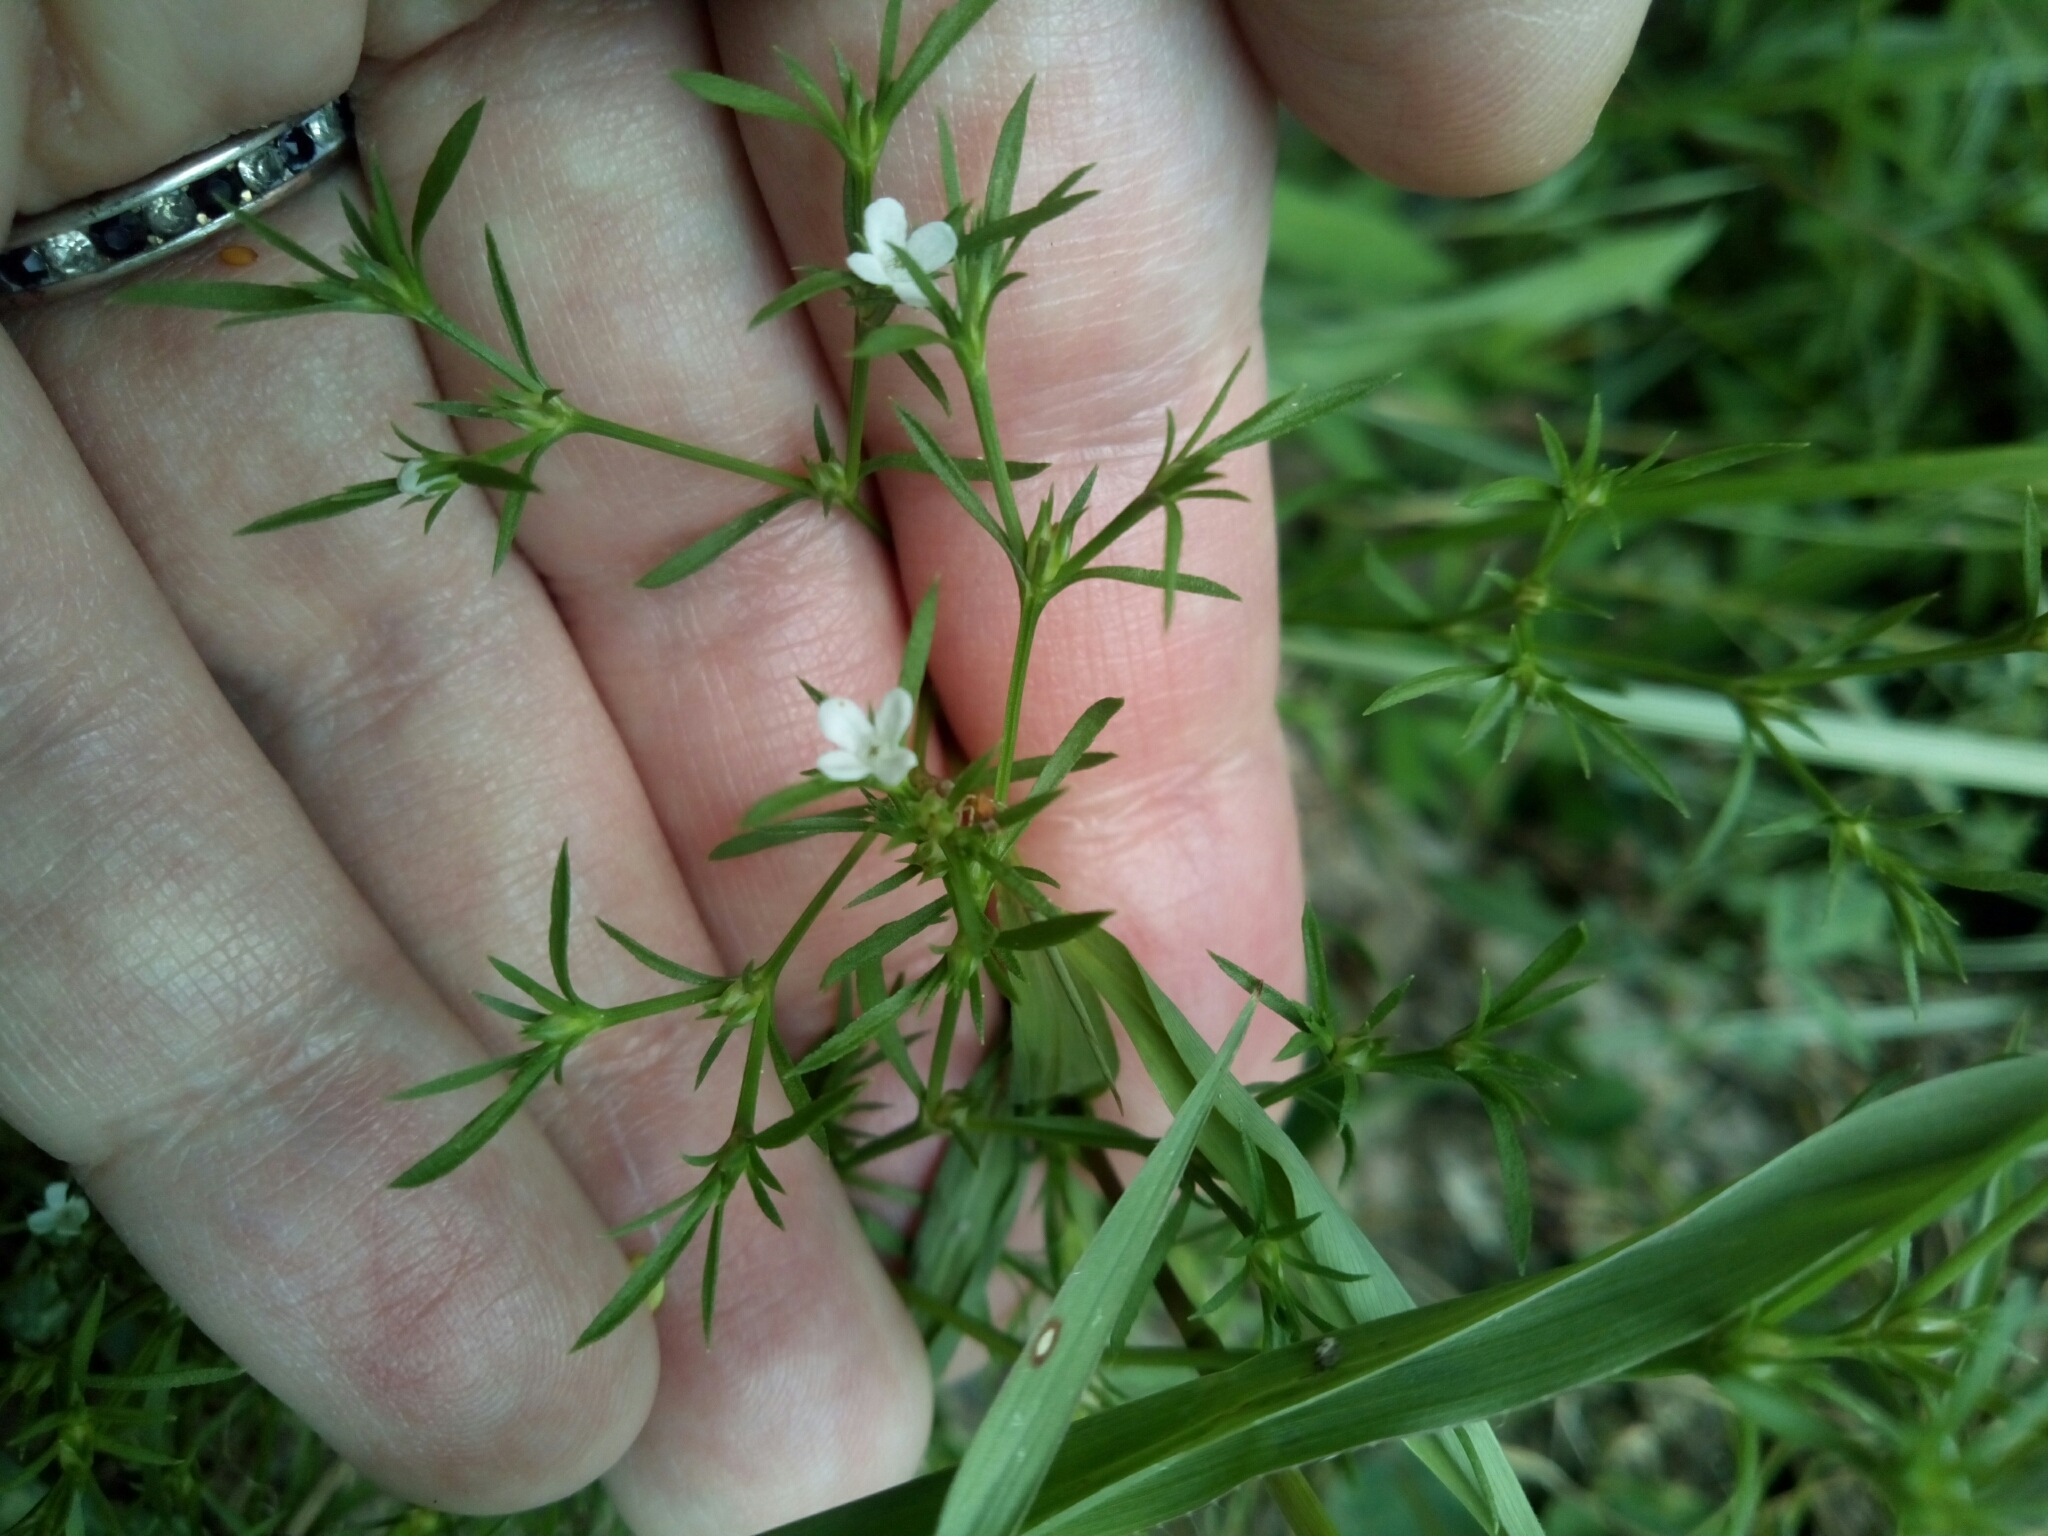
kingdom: Plantae
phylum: Tracheophyta
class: Magnoliopsida
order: Lamiales
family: Tetrachondraceae
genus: Polypremum
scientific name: Polypremum procumbens
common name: Juniper-leaf
